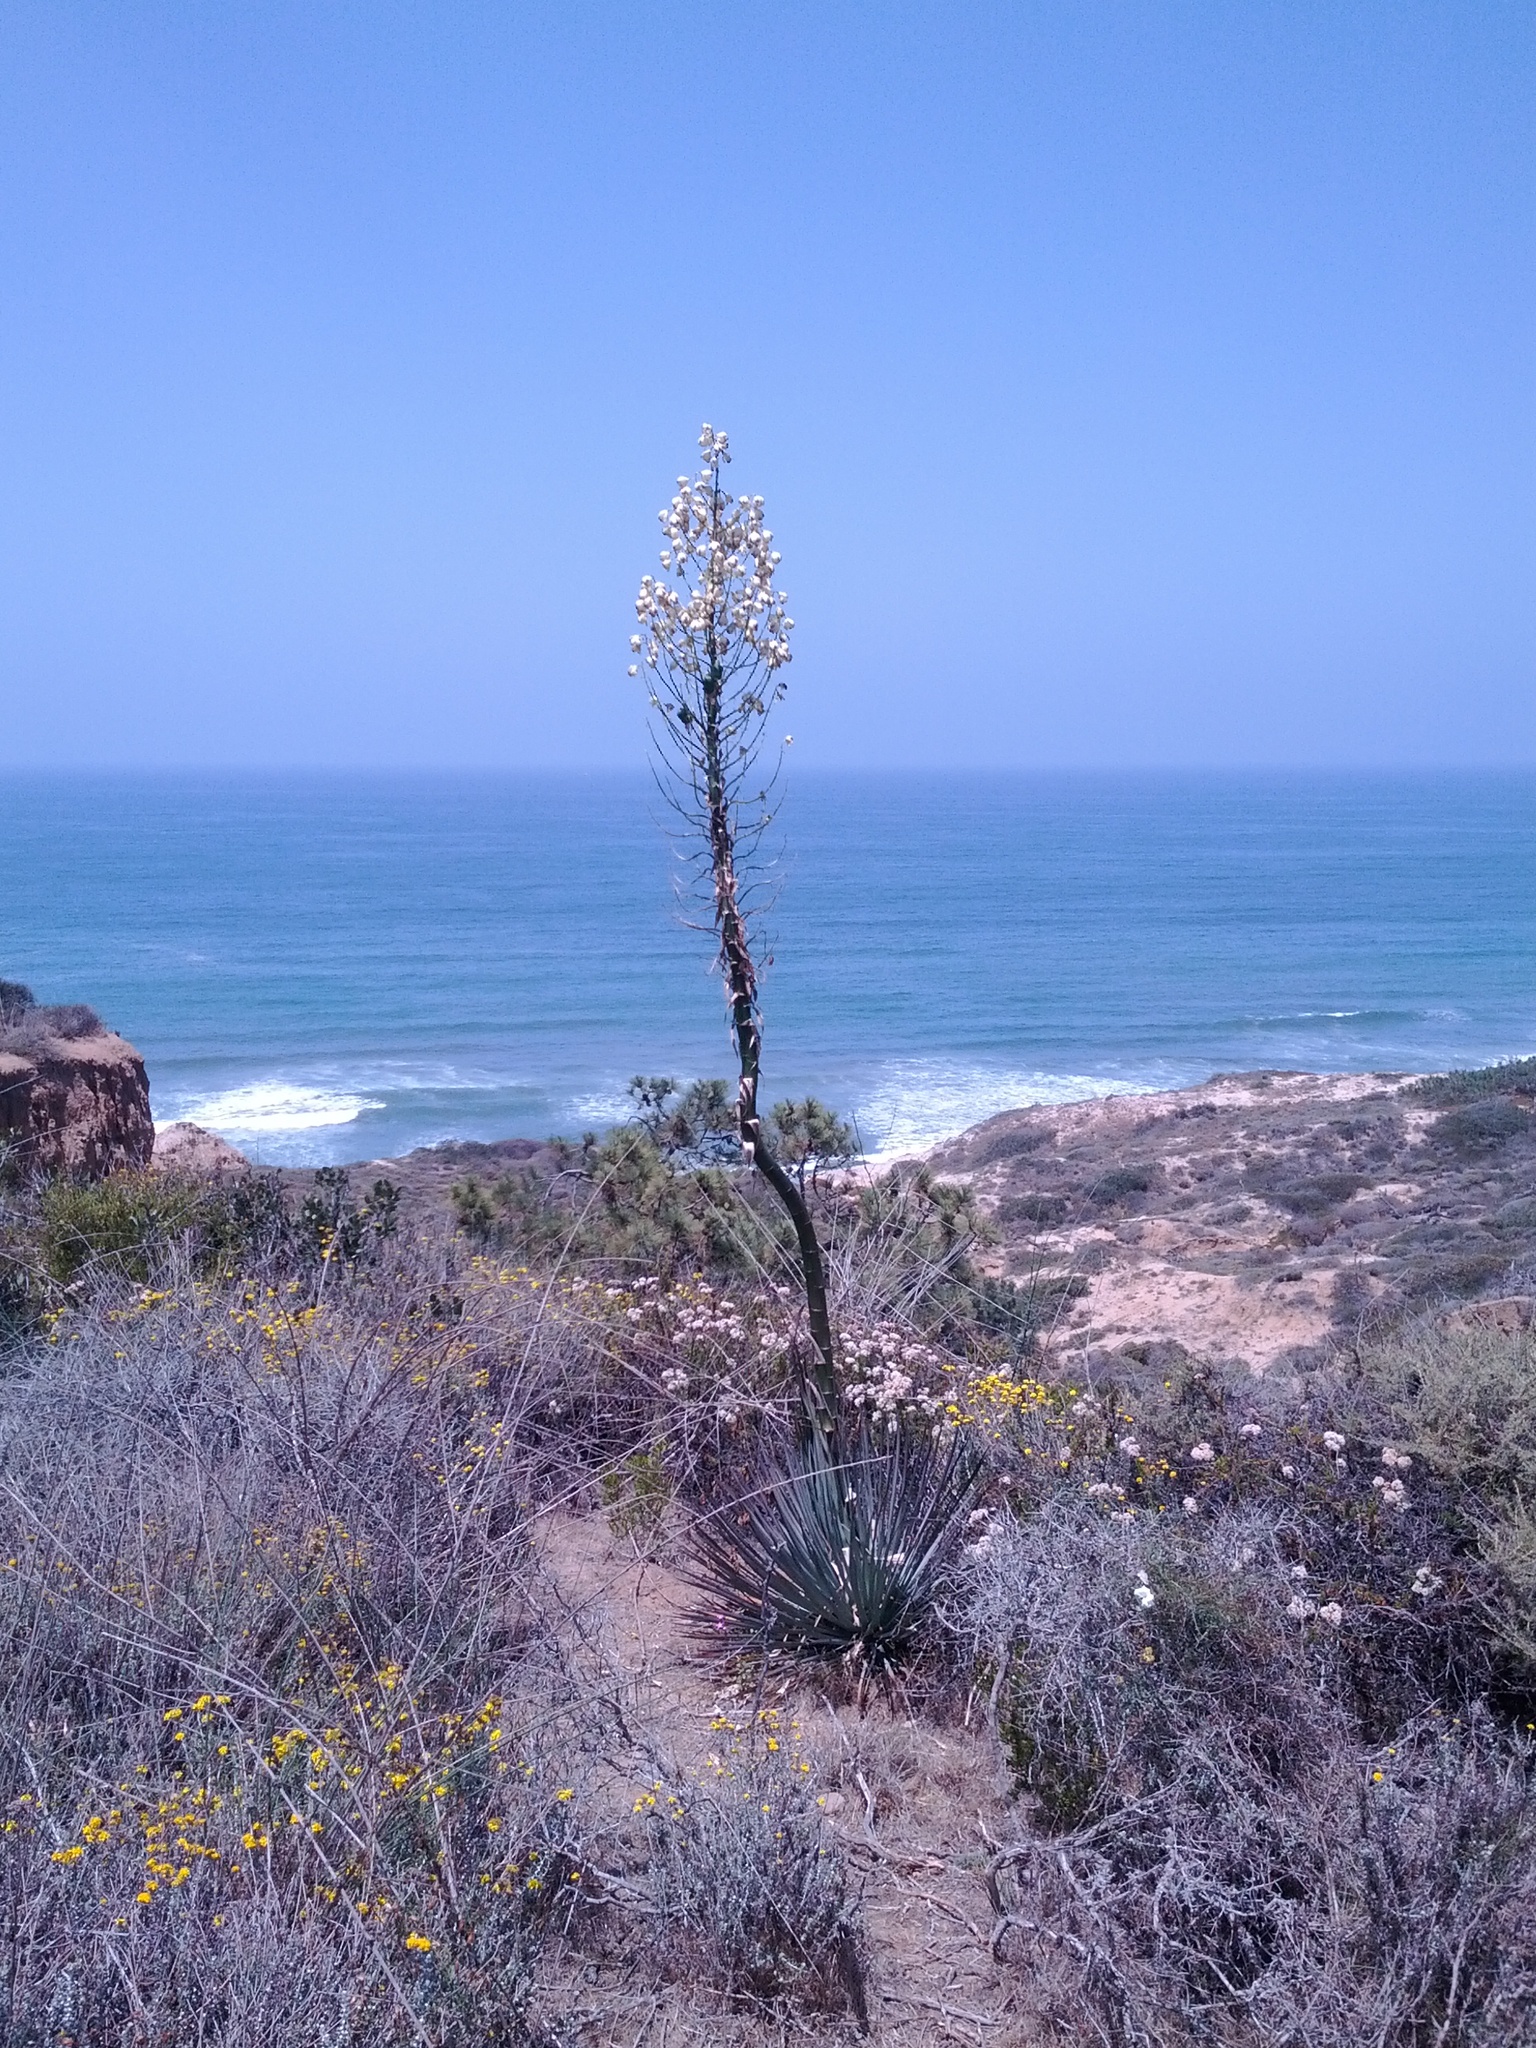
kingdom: Plantae
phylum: Tracheophyta
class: Liliopsida
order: Asparagales
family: Asparagaceae
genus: Hesperoyucca
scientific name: Hesperoyucca whipplei
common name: Our lord's-candle
